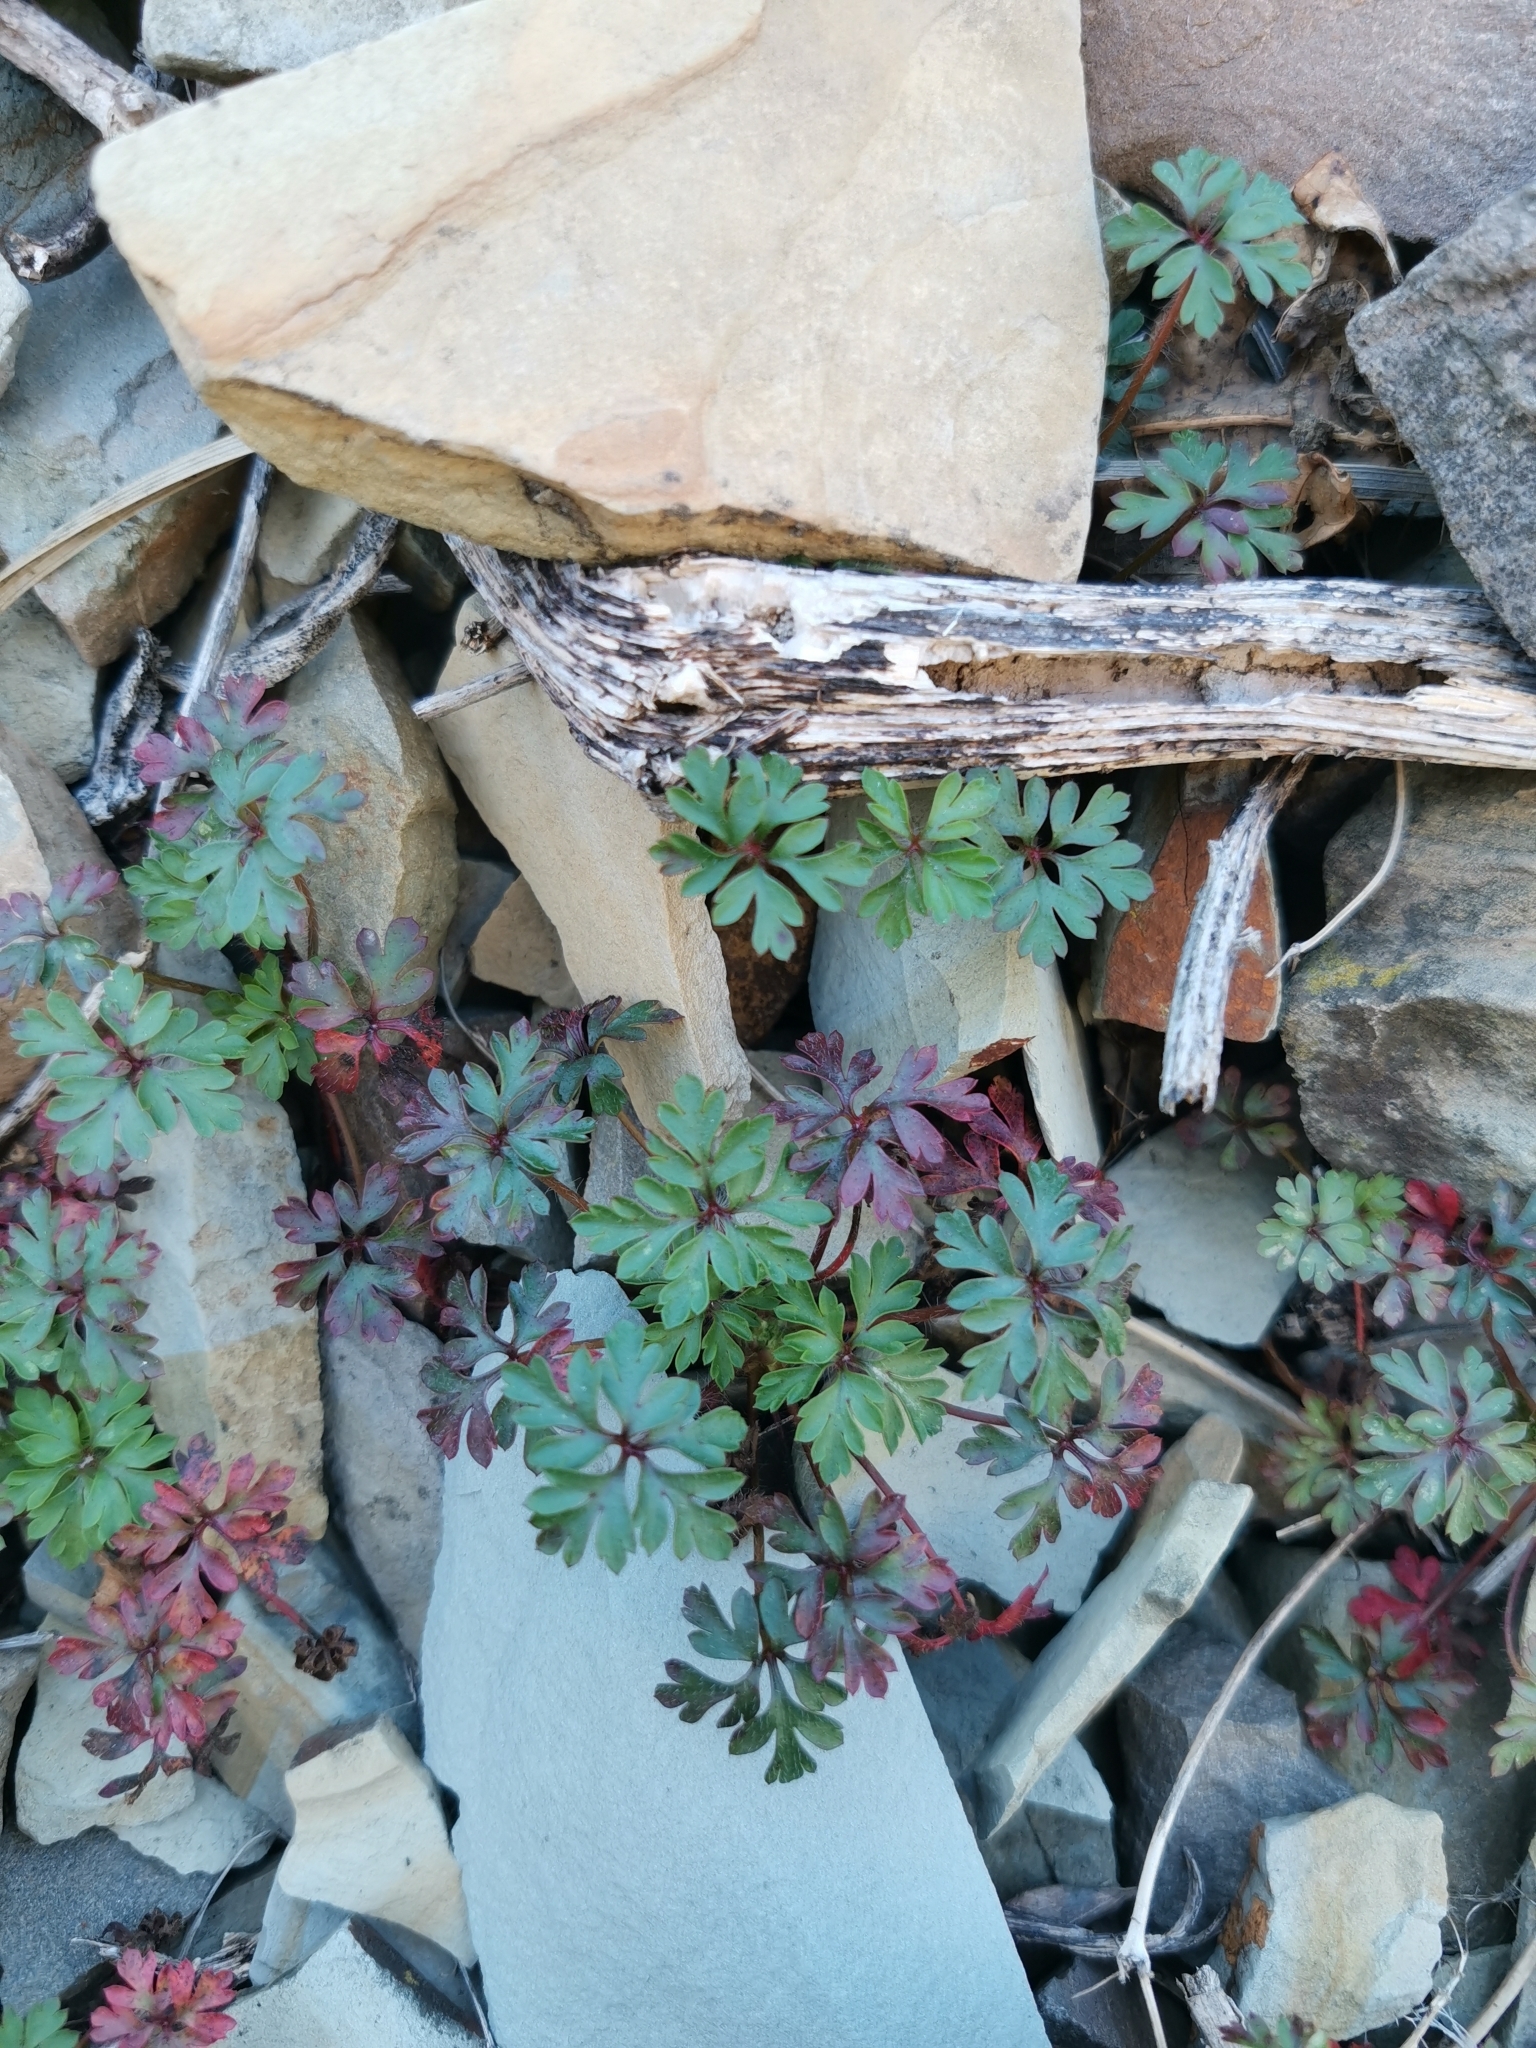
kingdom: Plantae
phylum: Tracheophyta
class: Magnoliopsida
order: Geraniales
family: Geraniaceae
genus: Geranium
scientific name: Geranium purpureum
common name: Little-robin
